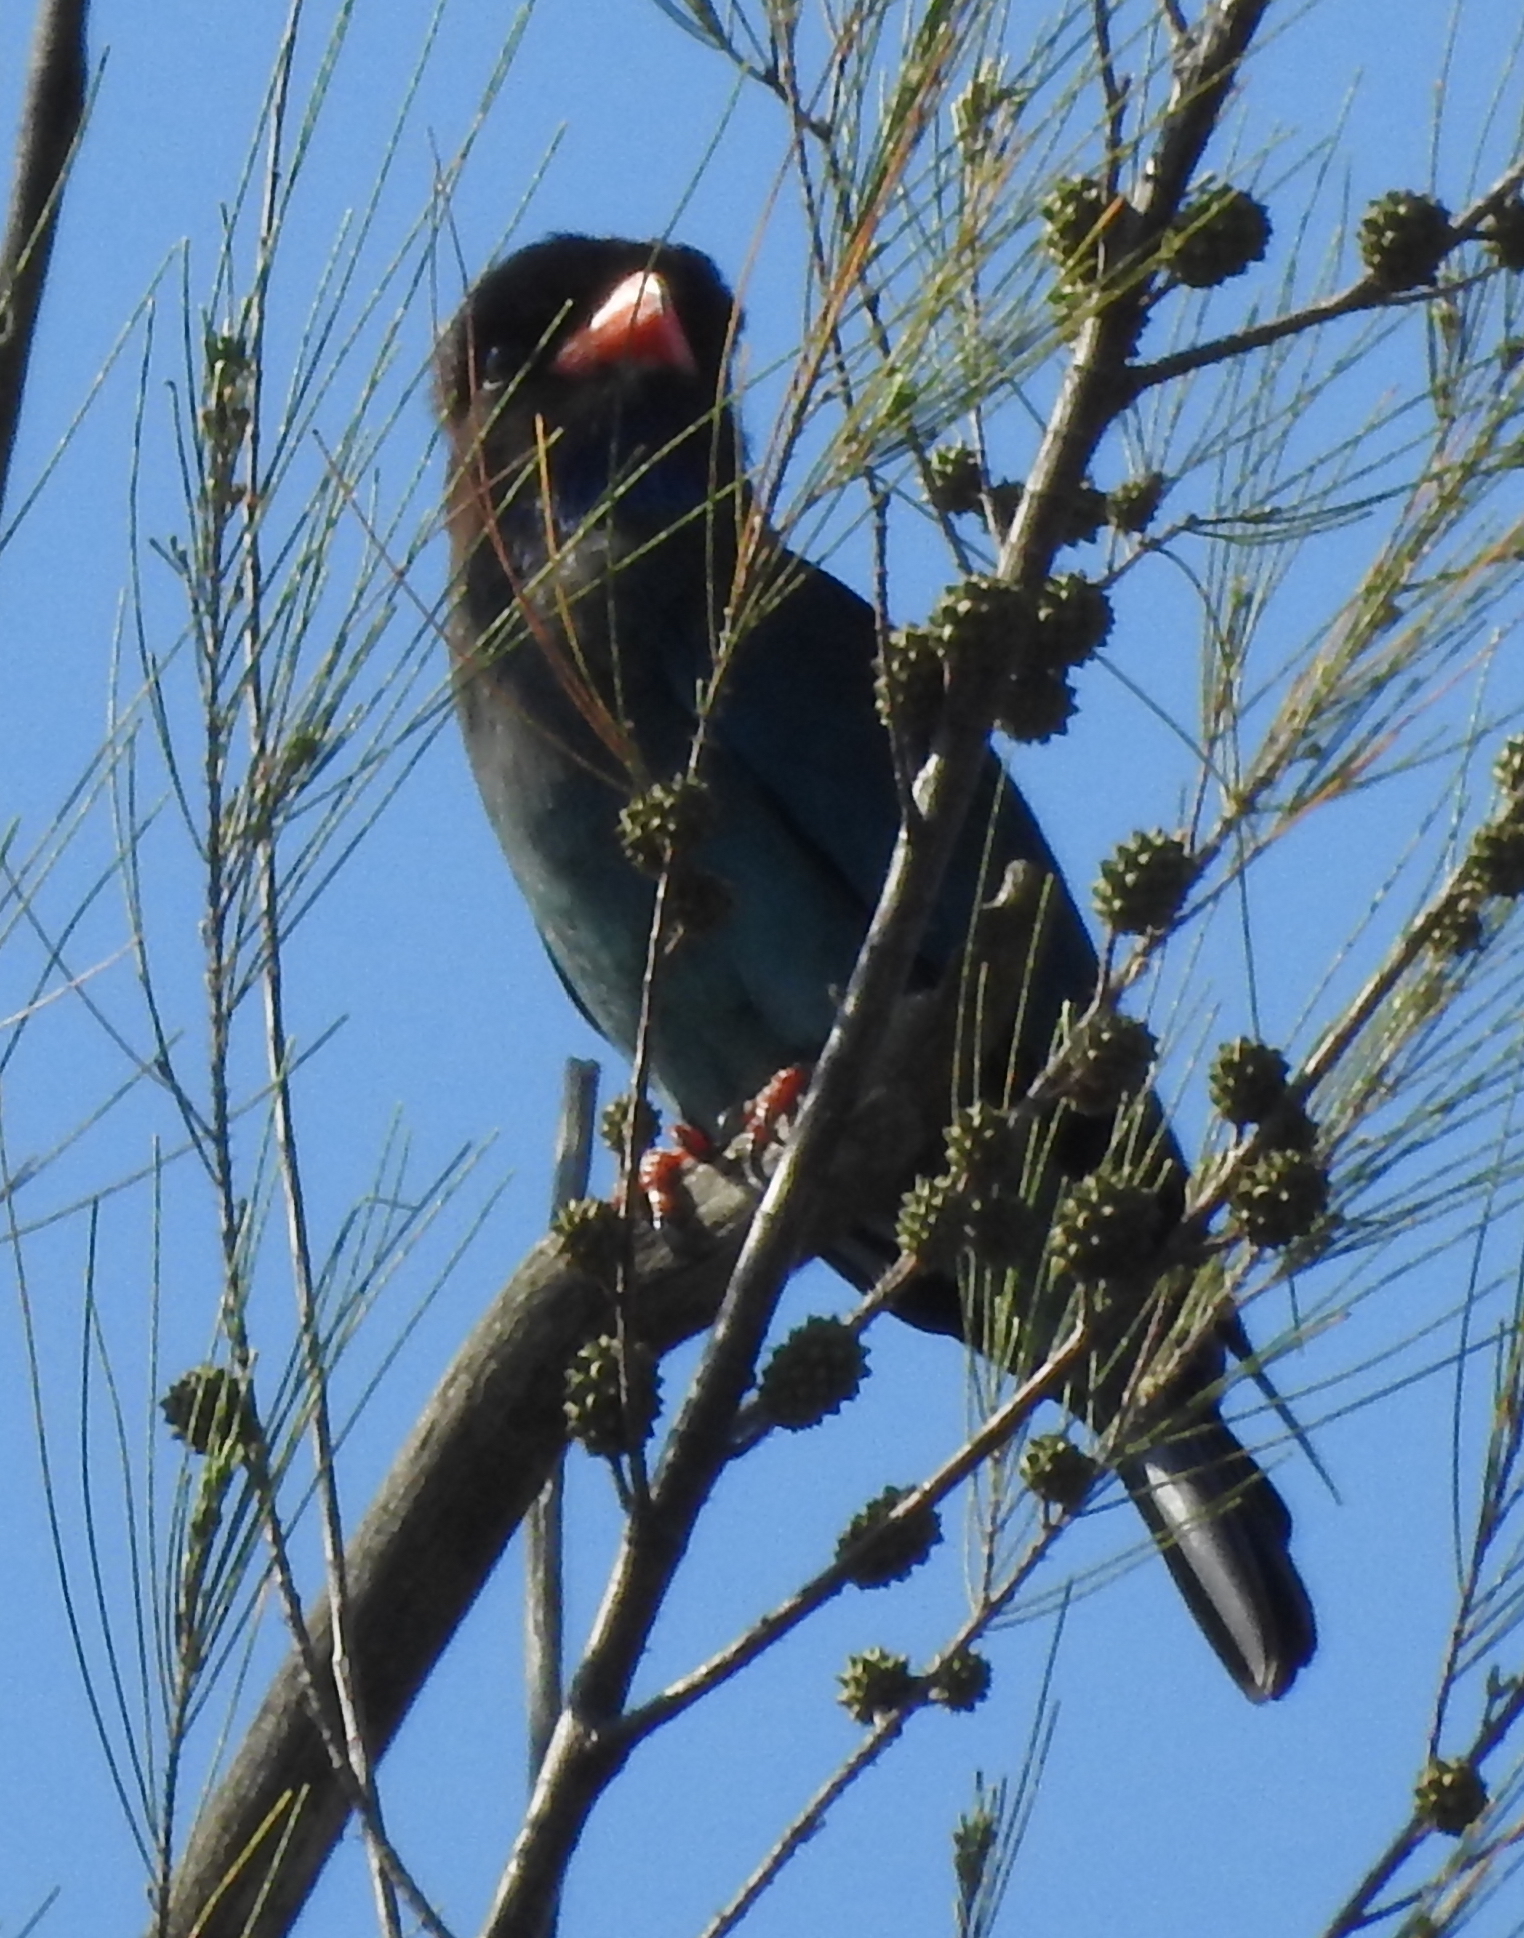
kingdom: Animalia
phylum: Chordata
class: Aves
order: Coraciiformes
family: Coraciidae
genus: Eurystomus
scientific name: Eurystomus orientalis
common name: Oriental dollarbird
